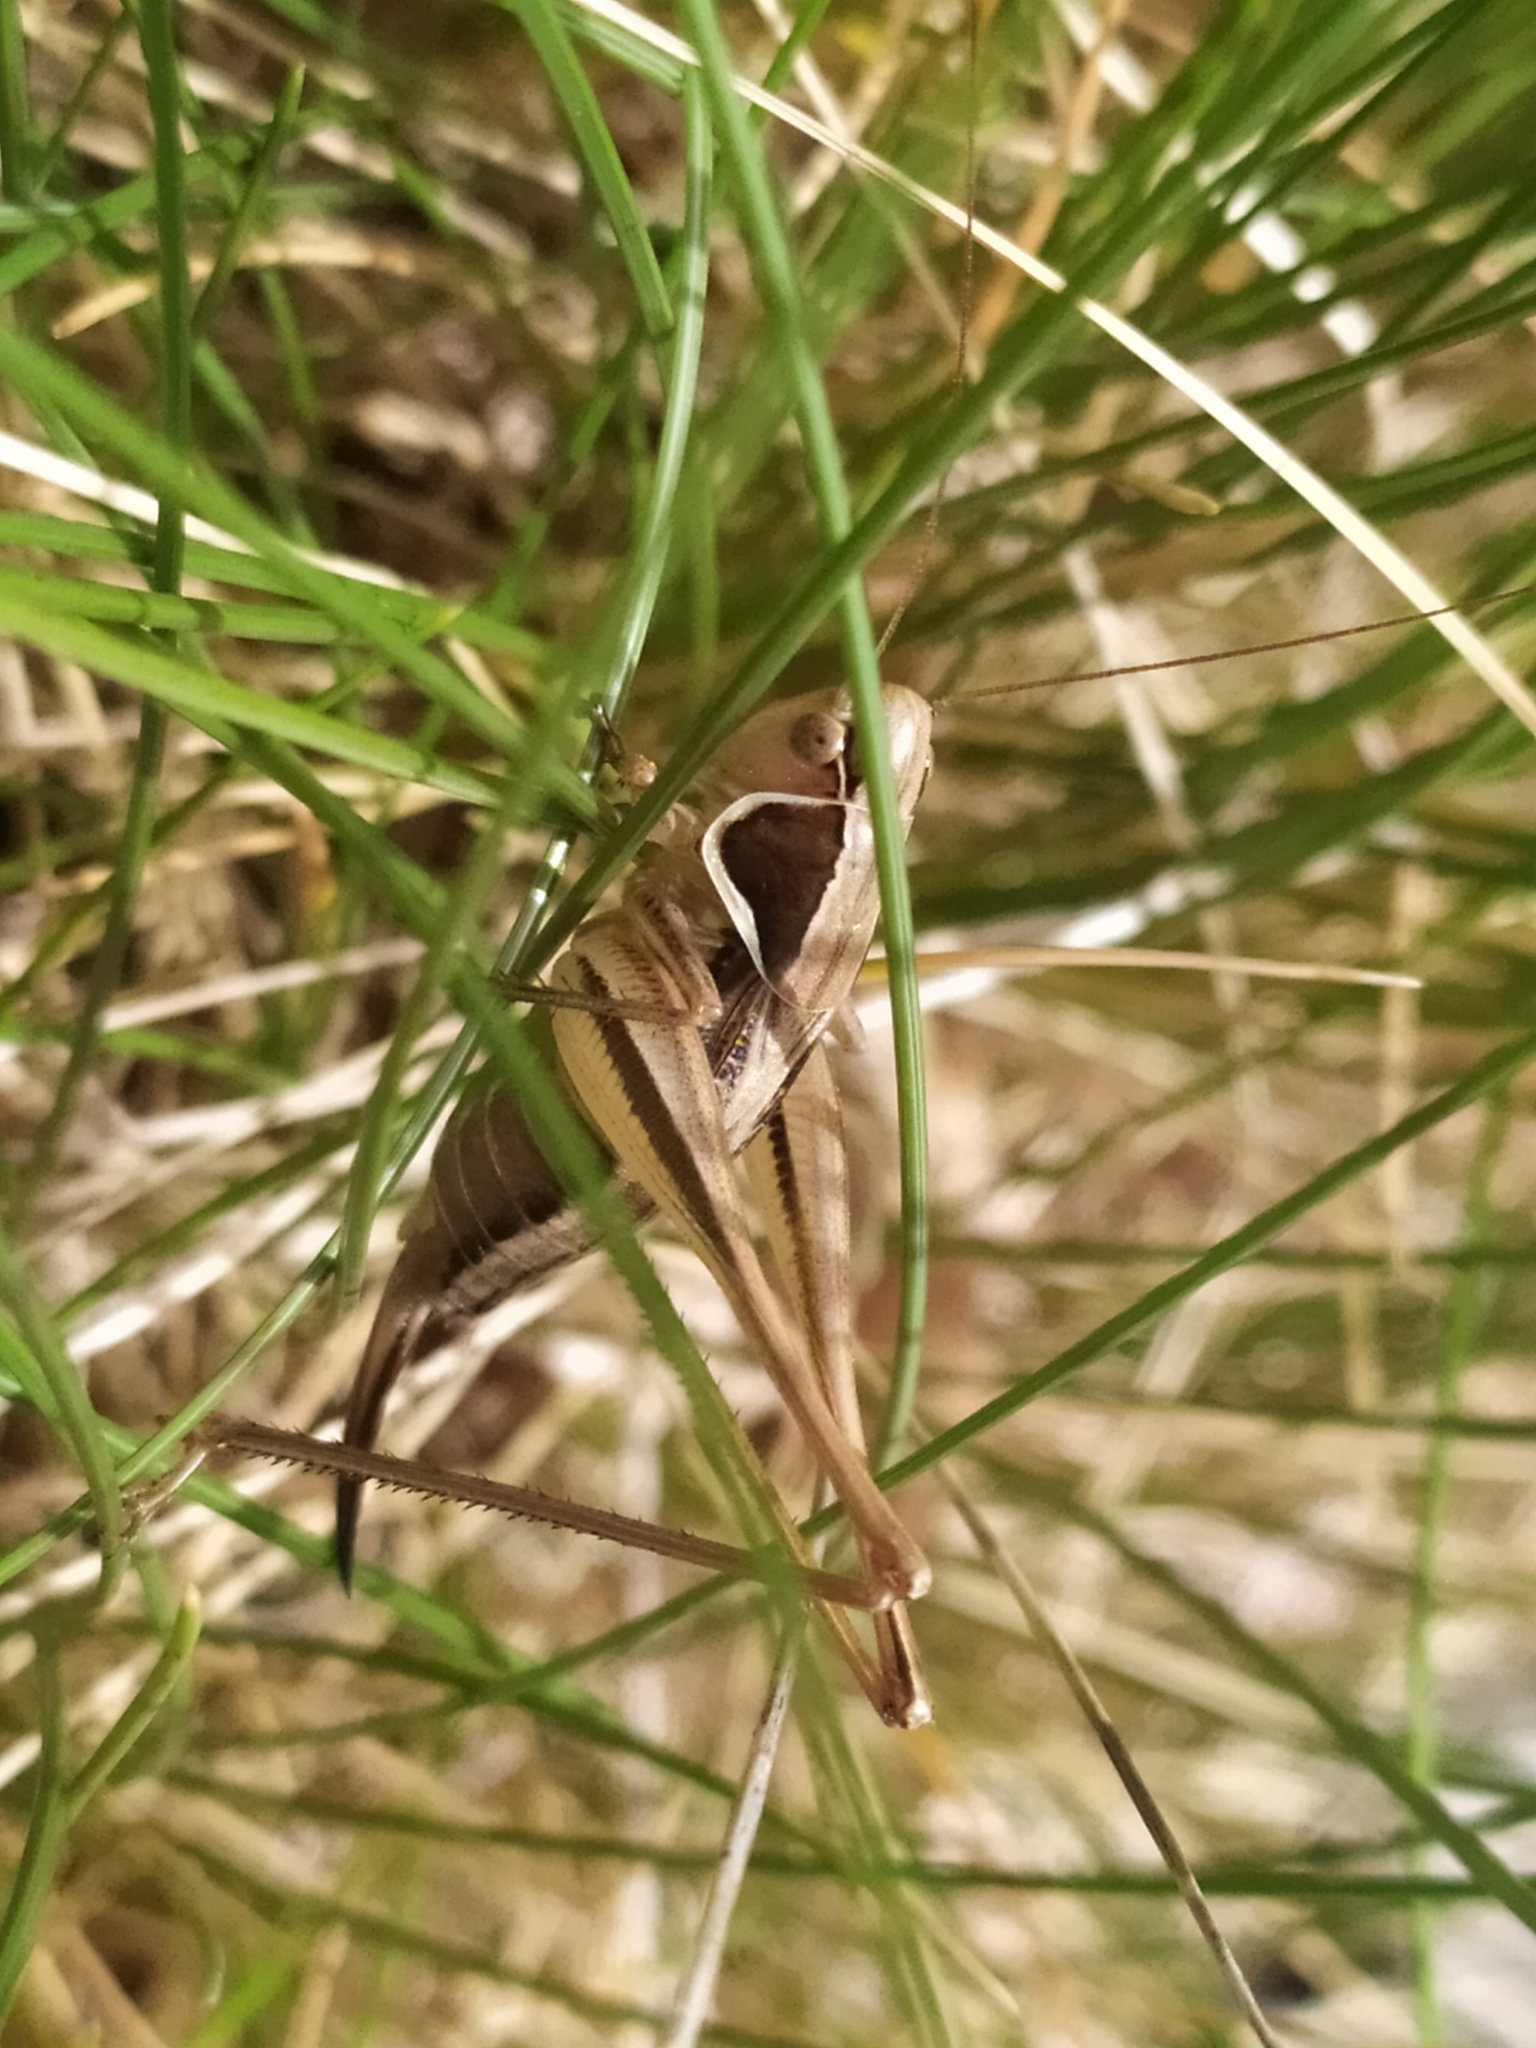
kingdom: Animalia
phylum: Arthropoda
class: Insecta
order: Orthoptera
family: Tettigoniidae
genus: Modestana
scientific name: Modestana modesta
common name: Common modest bush-cricket
